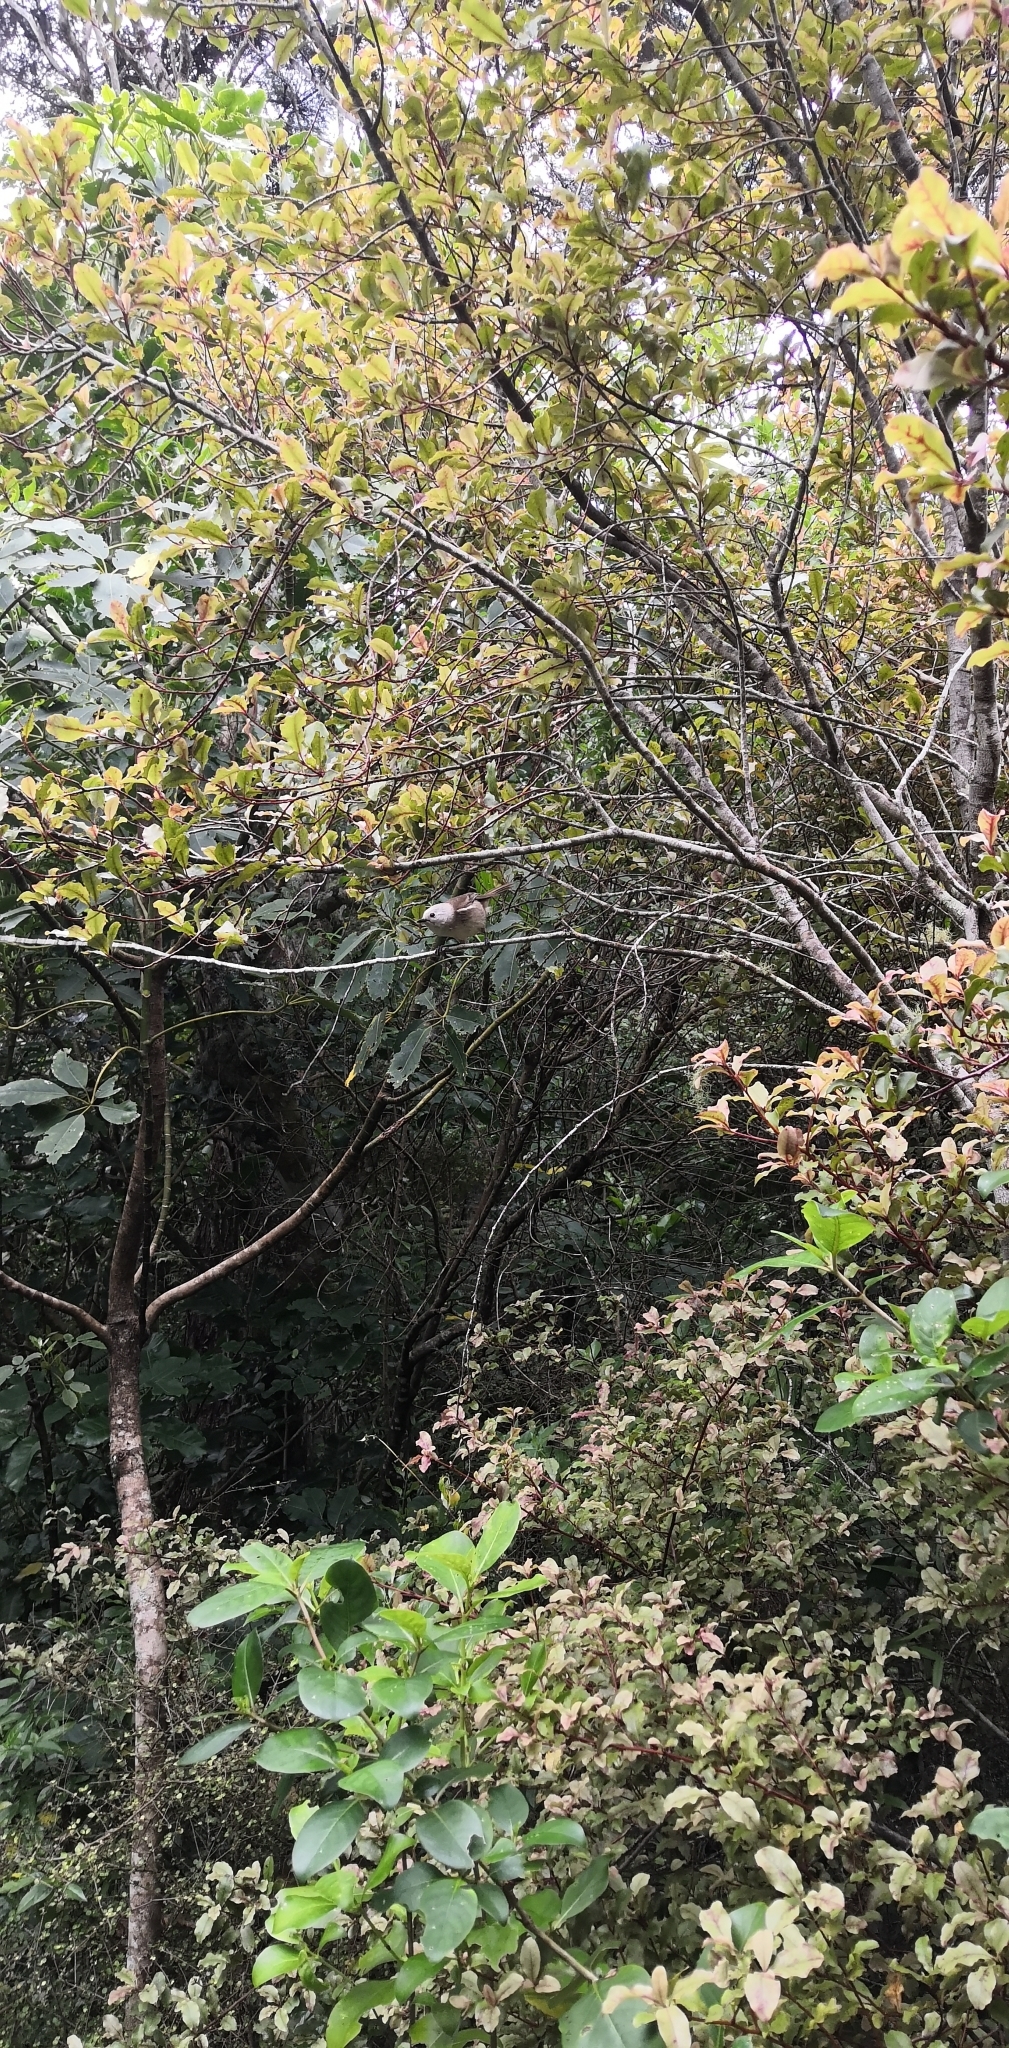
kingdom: Animalia
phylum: Chordata
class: Aves
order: Passeriformes
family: Acanthizidae
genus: Mohoua
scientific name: Mohoua albicilla
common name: Whitehead
